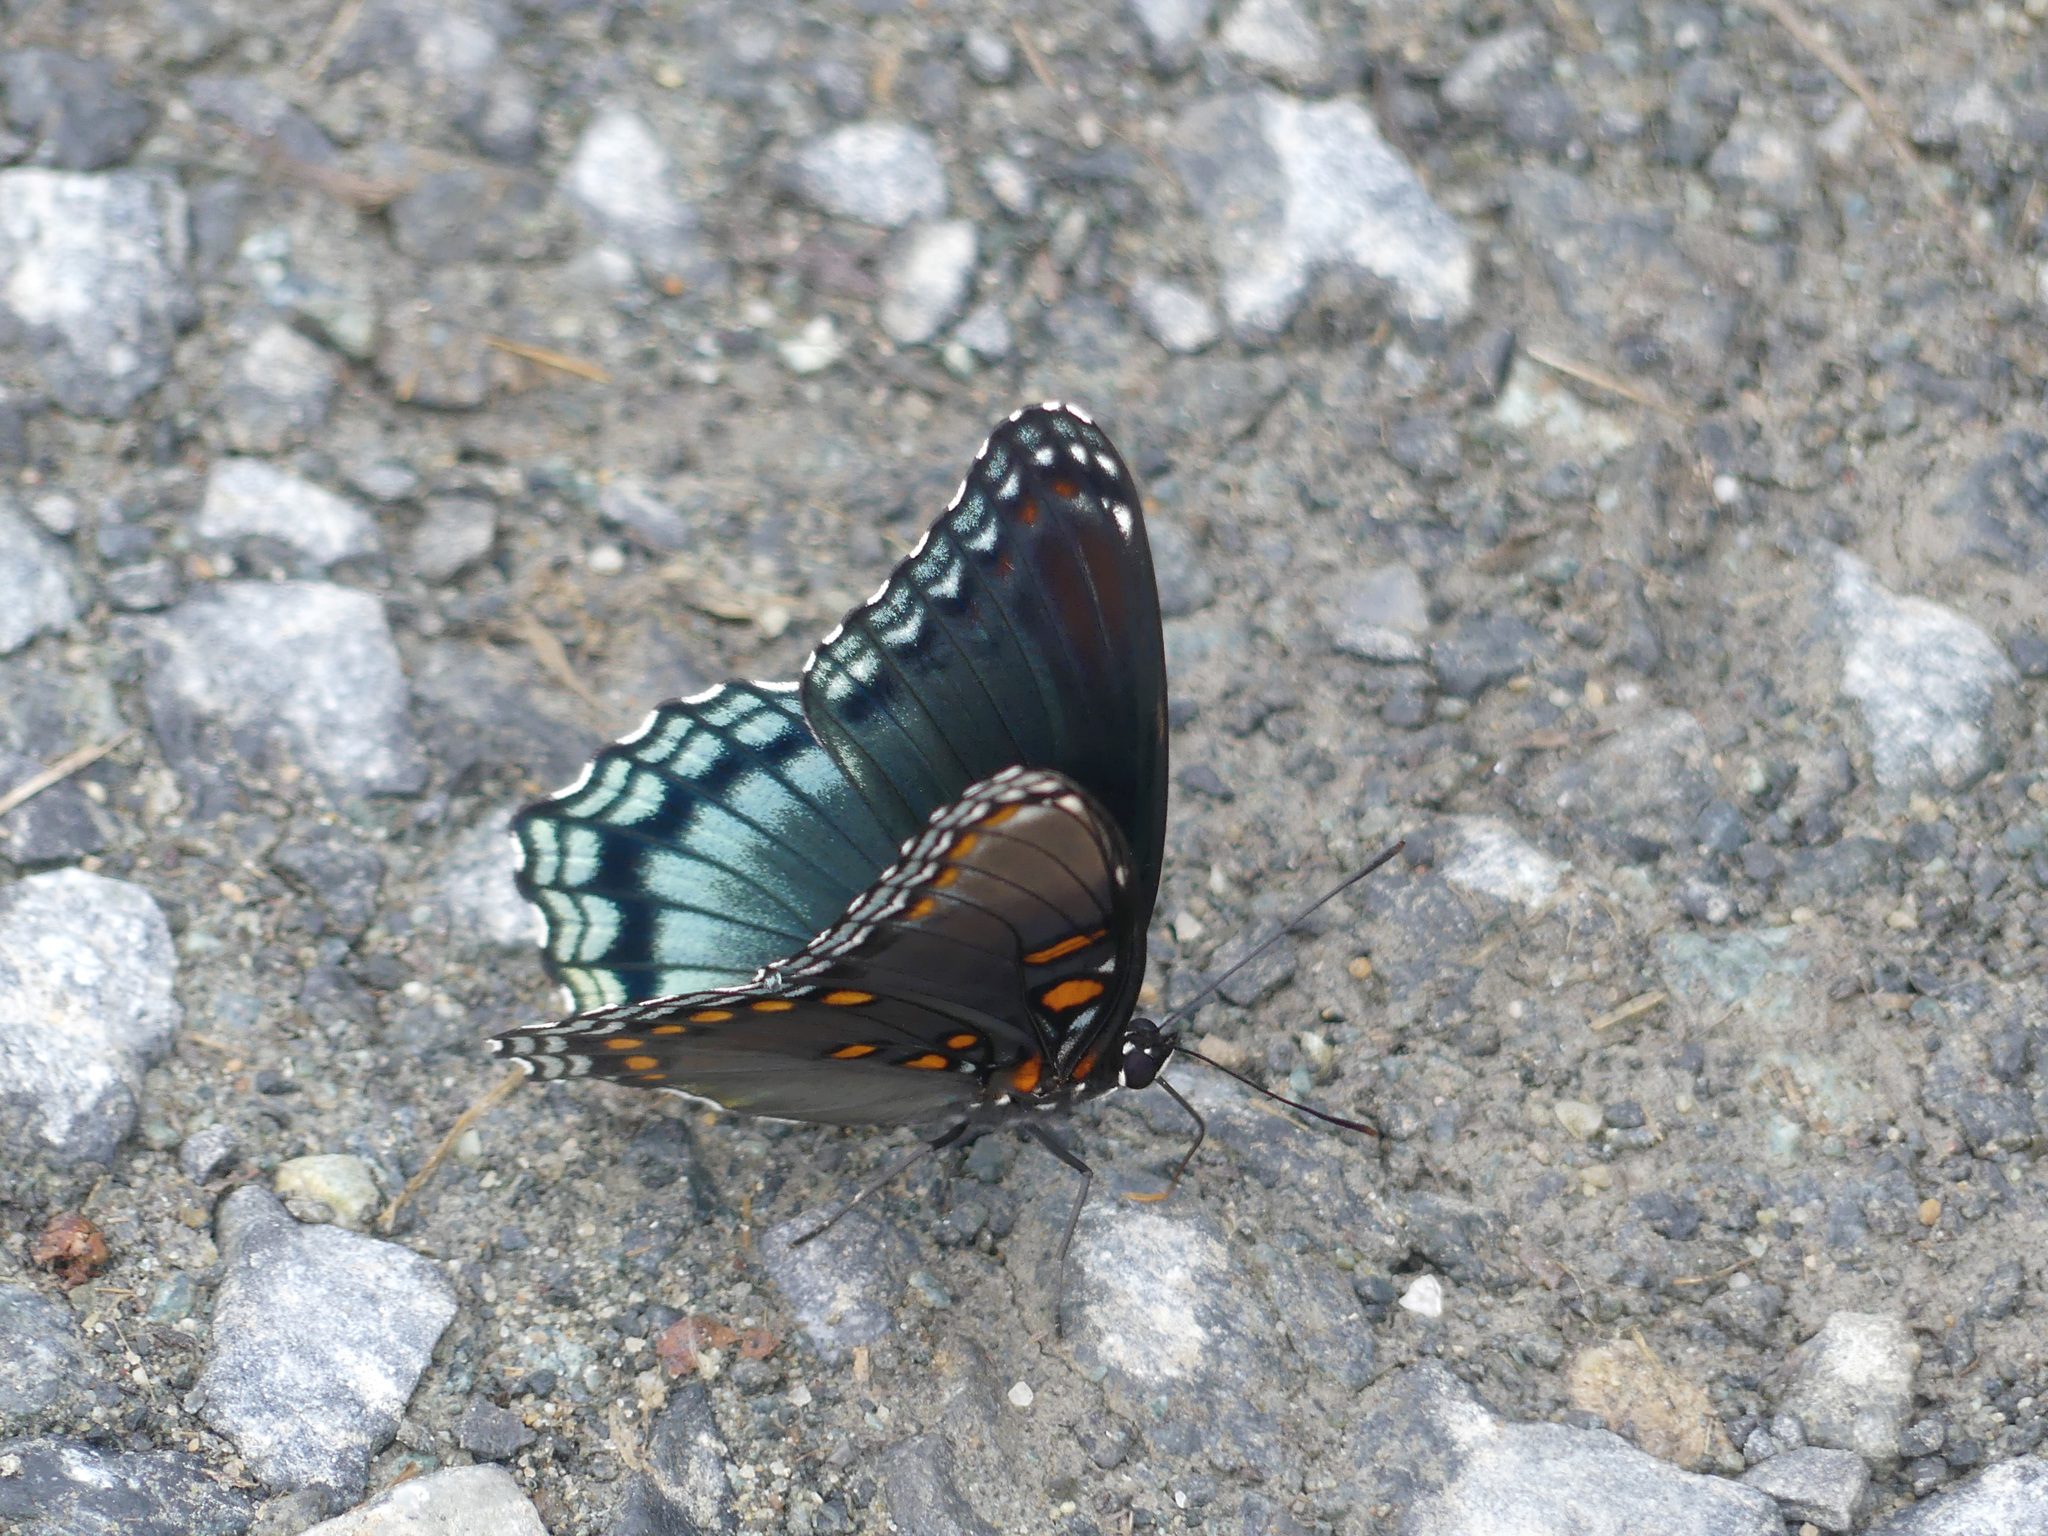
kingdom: Animalia
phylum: Arthropoda
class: Insecta
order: Lepidoptera
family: Nymphalidae
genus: Limenitis
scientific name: Limenitis astyanax
